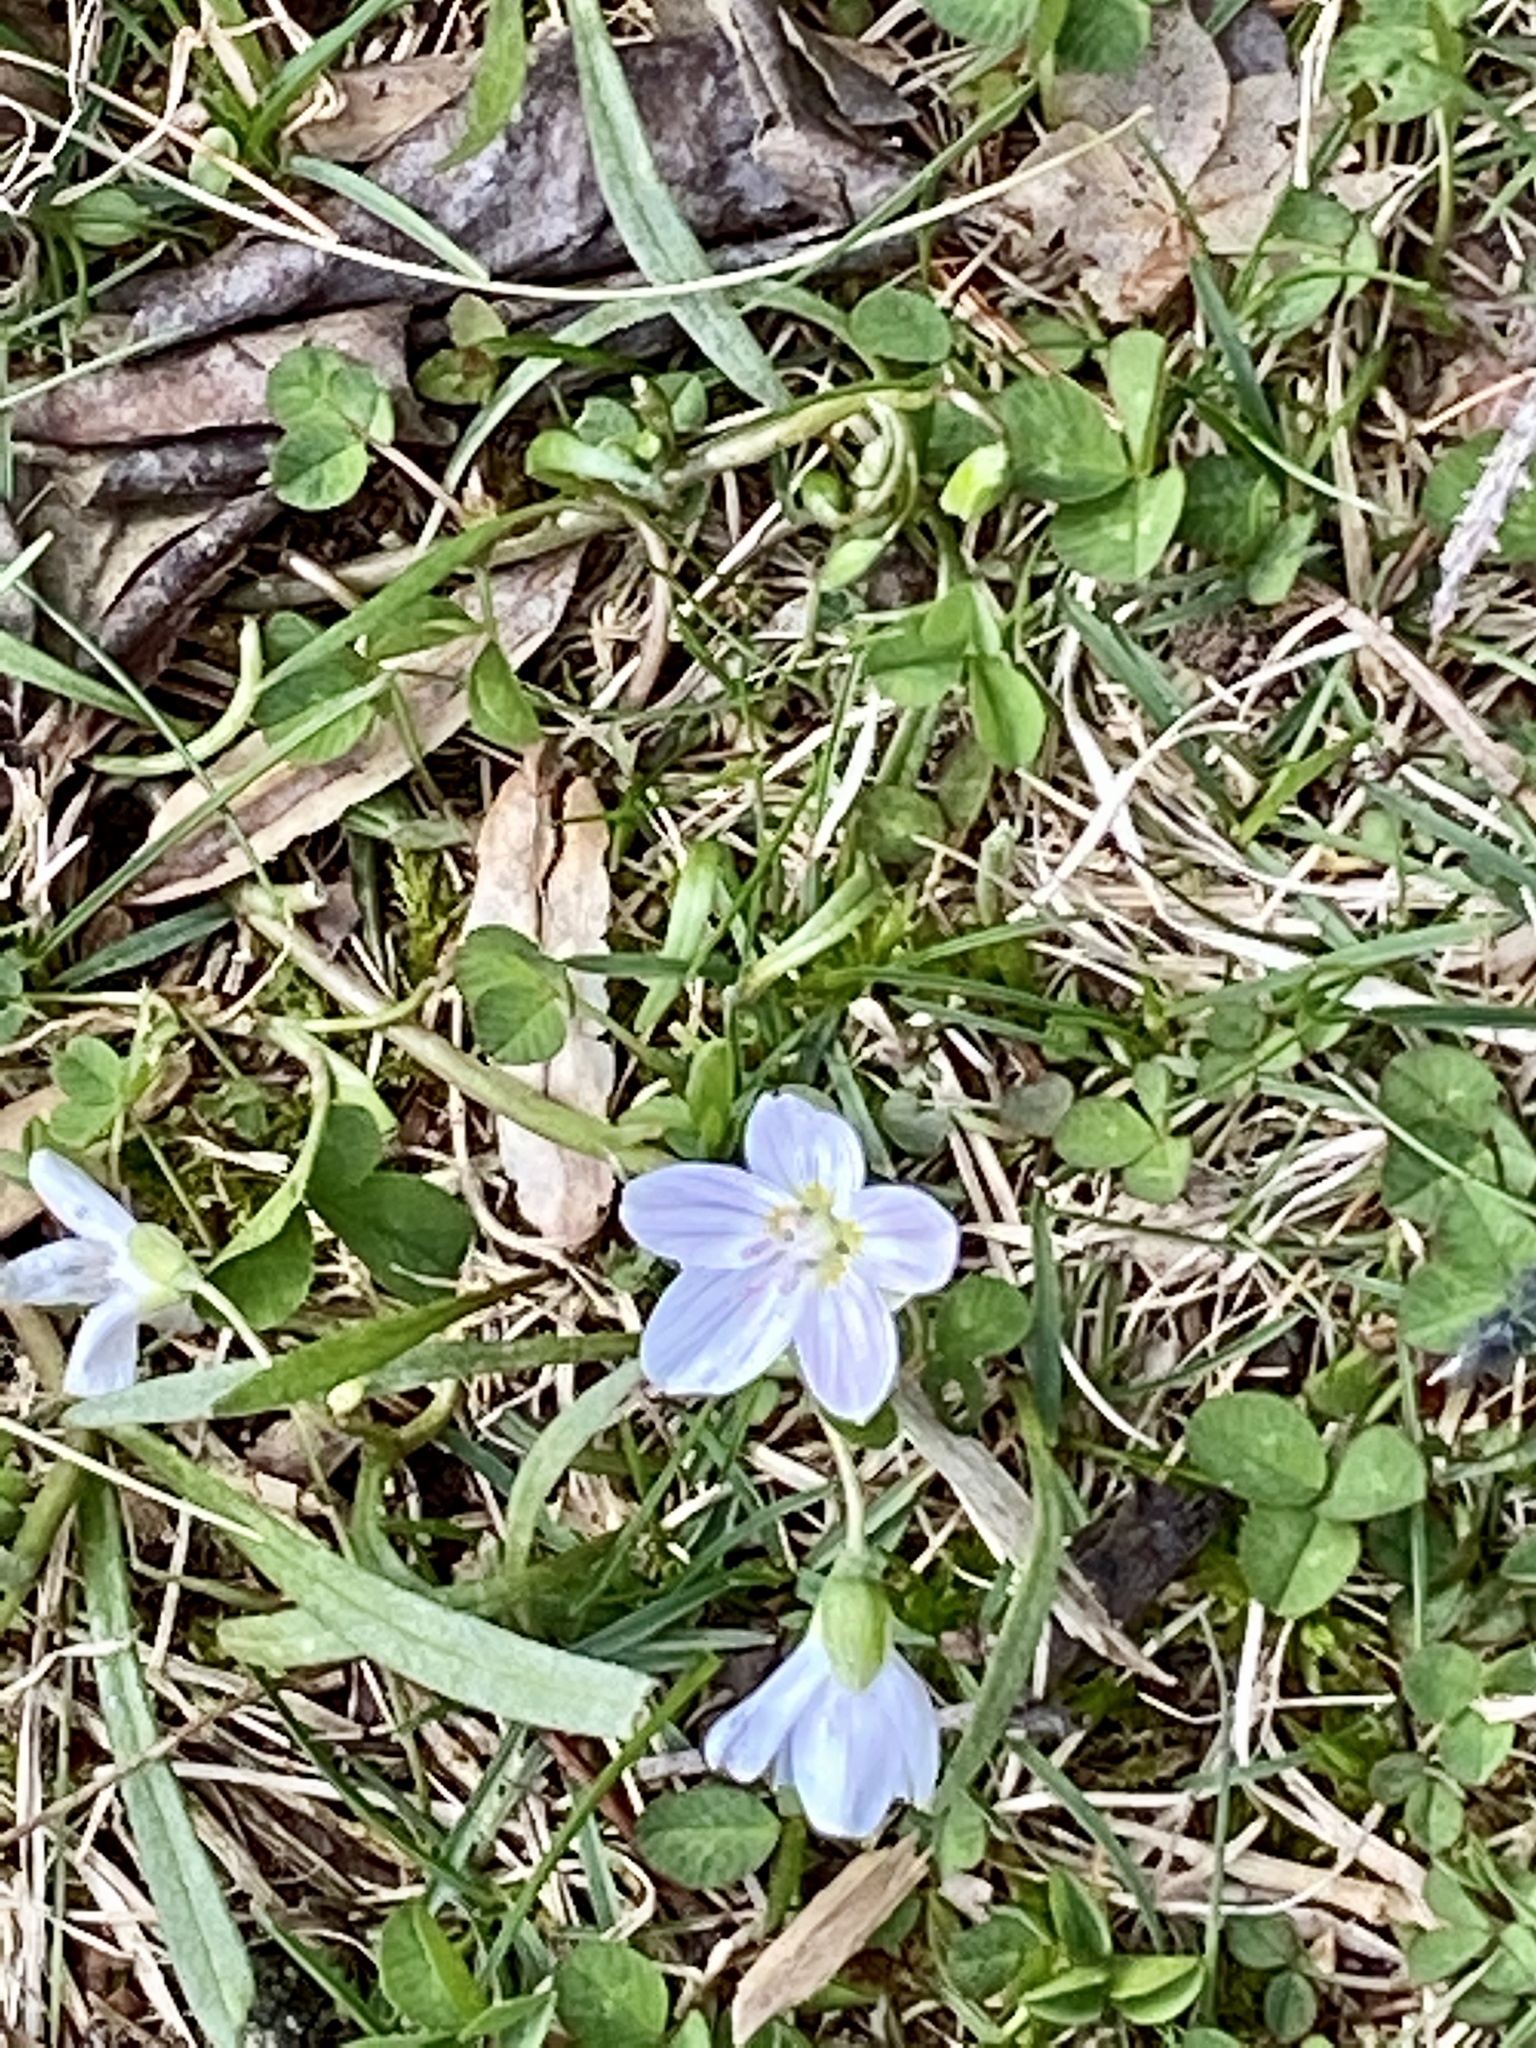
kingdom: Plantae
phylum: Tracheophyta
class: Magnoliopsida
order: Caryophyllales
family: Montiaceae
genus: Claytonia
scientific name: Claytonia virginica
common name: Virginia springbeauty
